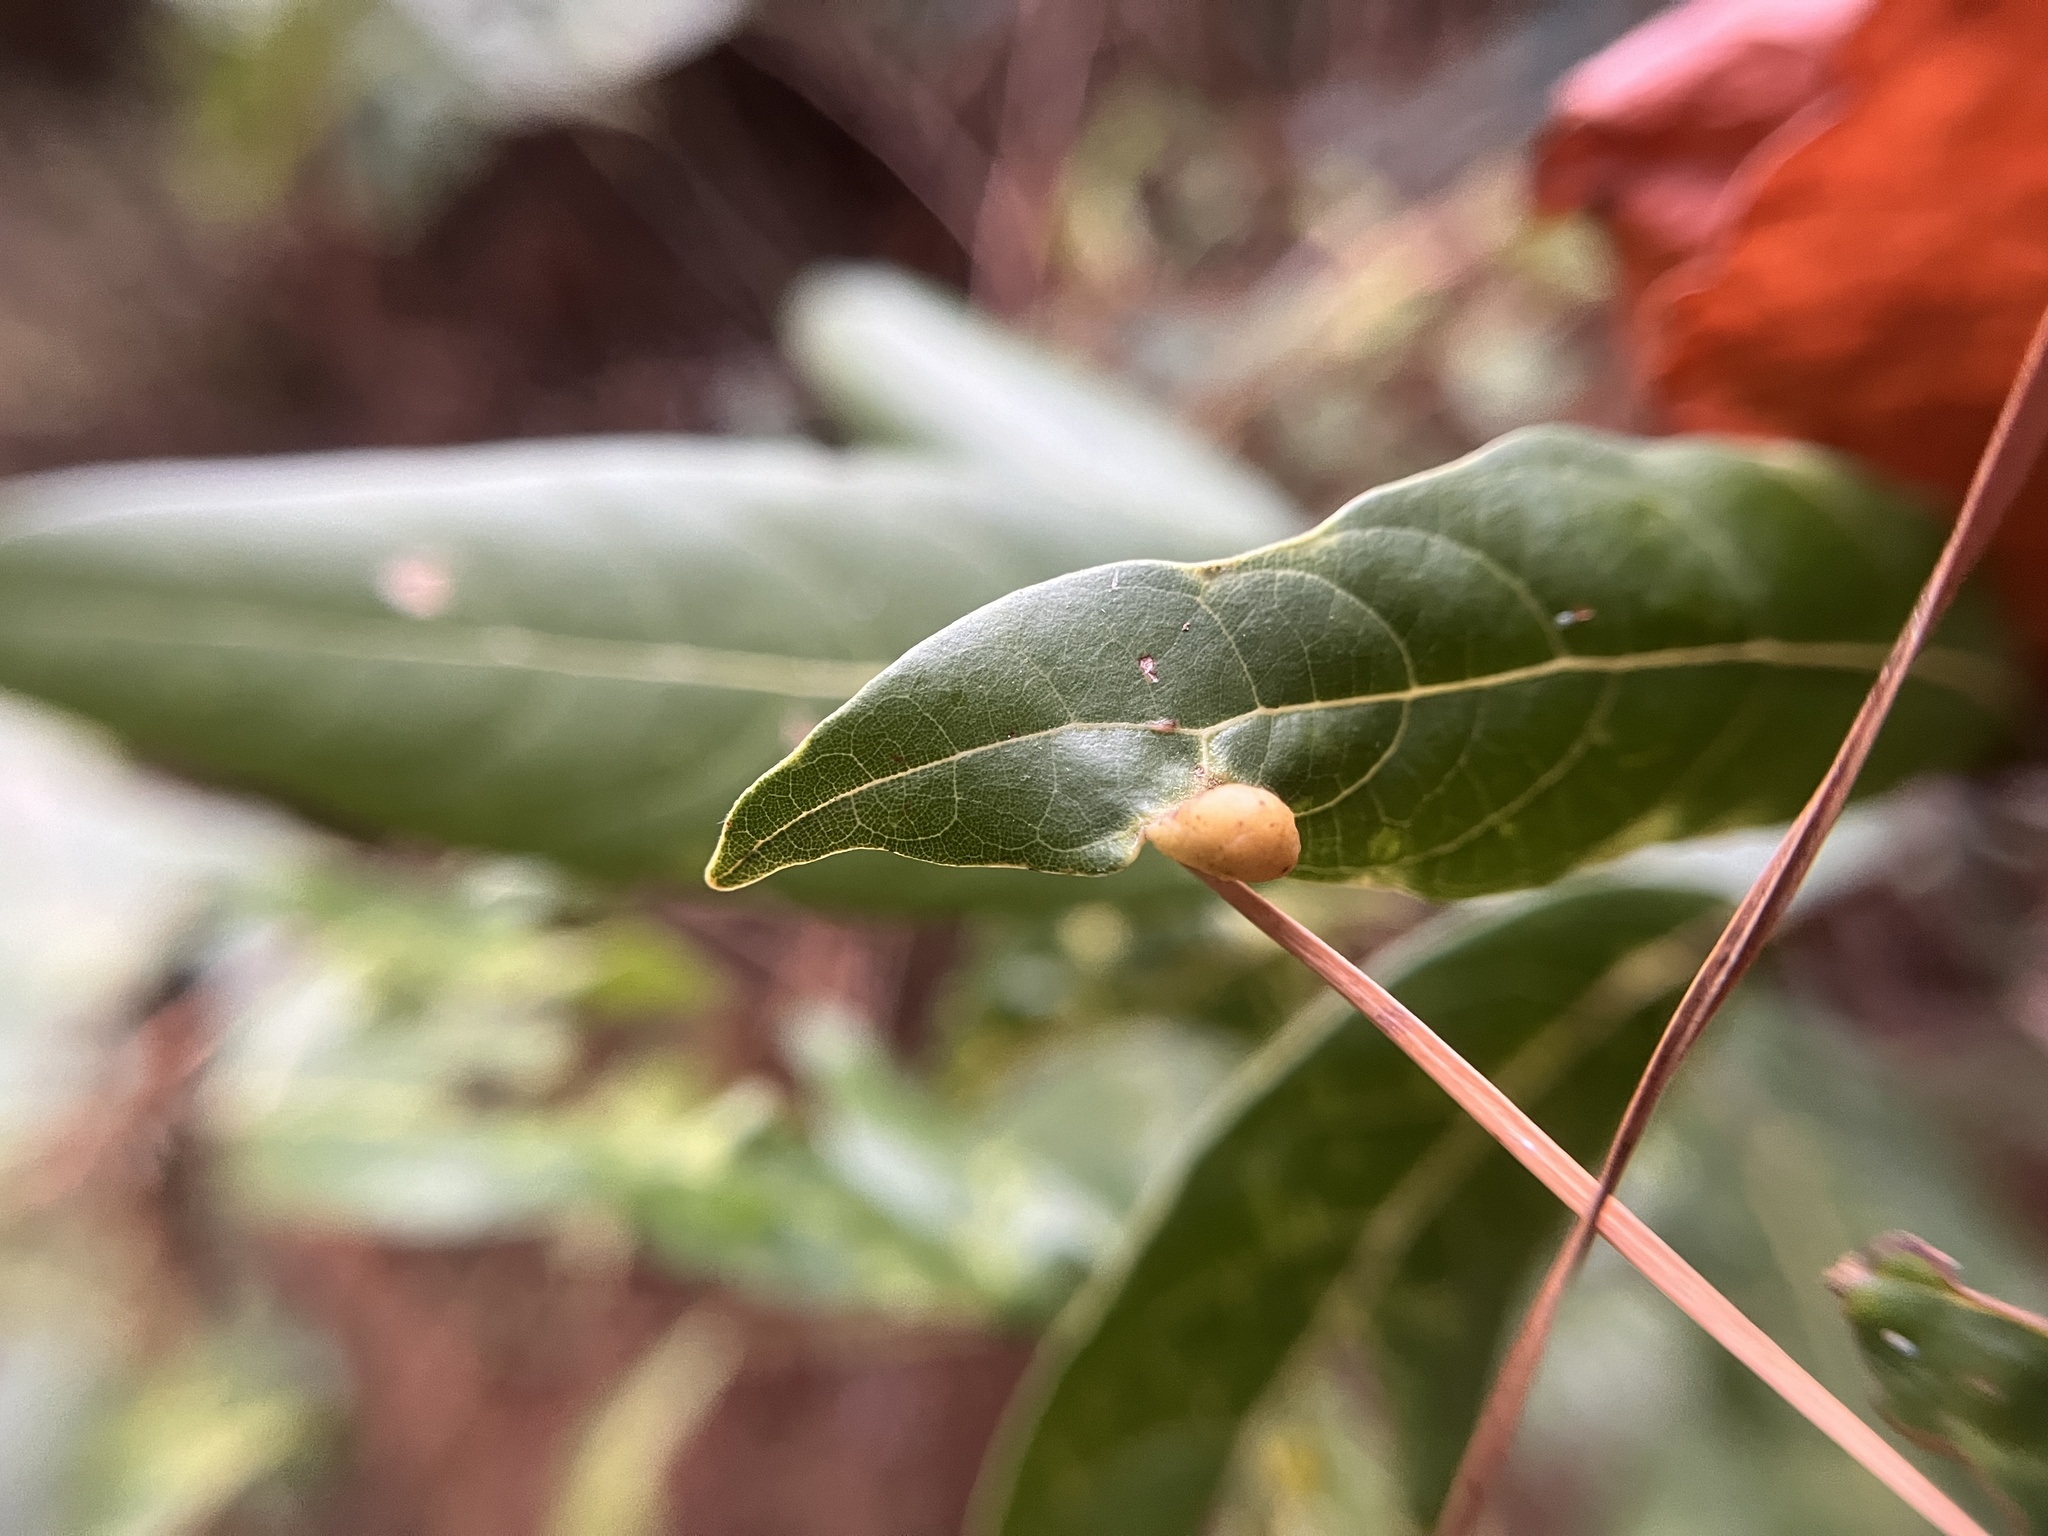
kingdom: Animalia
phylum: Arthropoda
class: Insecta
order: Hemiptera
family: Triozidae
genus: Trioza
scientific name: Trioza magnoliae
